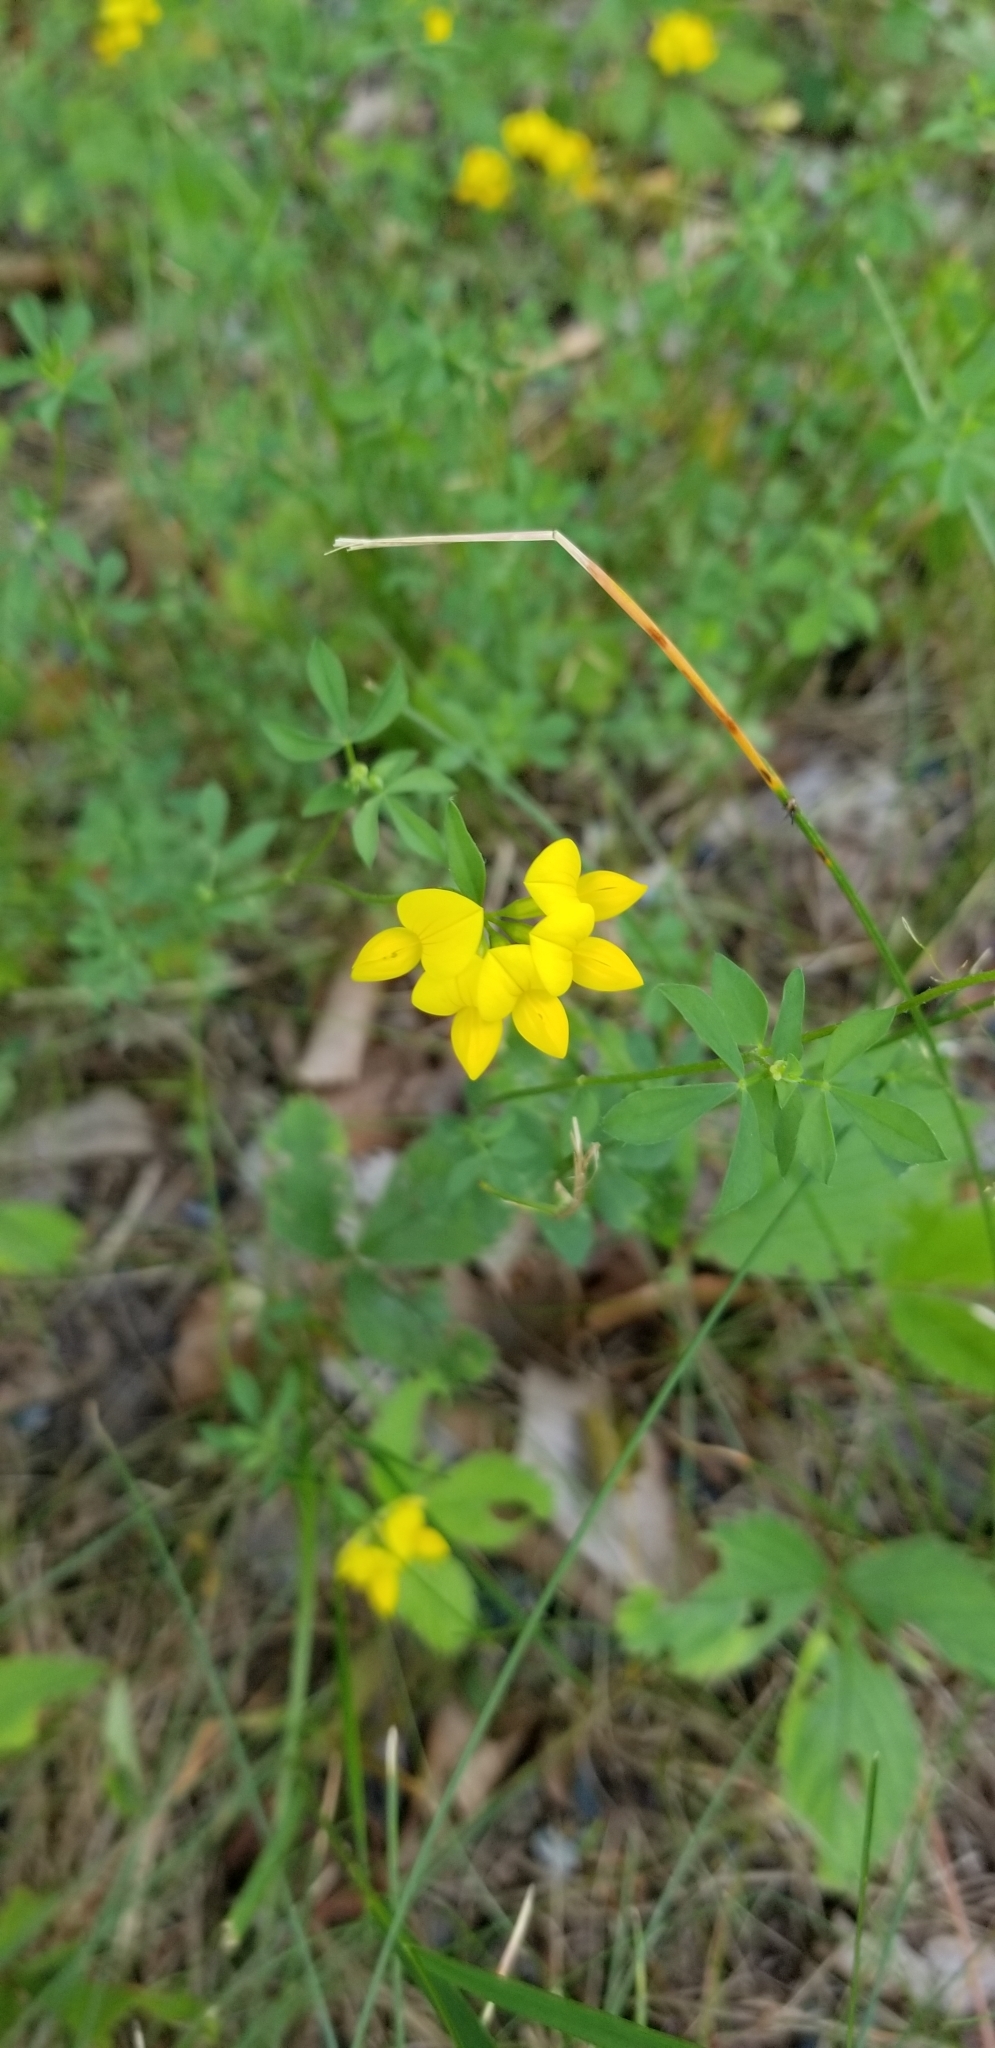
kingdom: Plantae
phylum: Tracheophyta
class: Magnoliopsida
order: Fabales
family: Fabaceae
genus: Lotus
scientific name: Lotus corniculatus
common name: Common bird's-foot-trefoil
